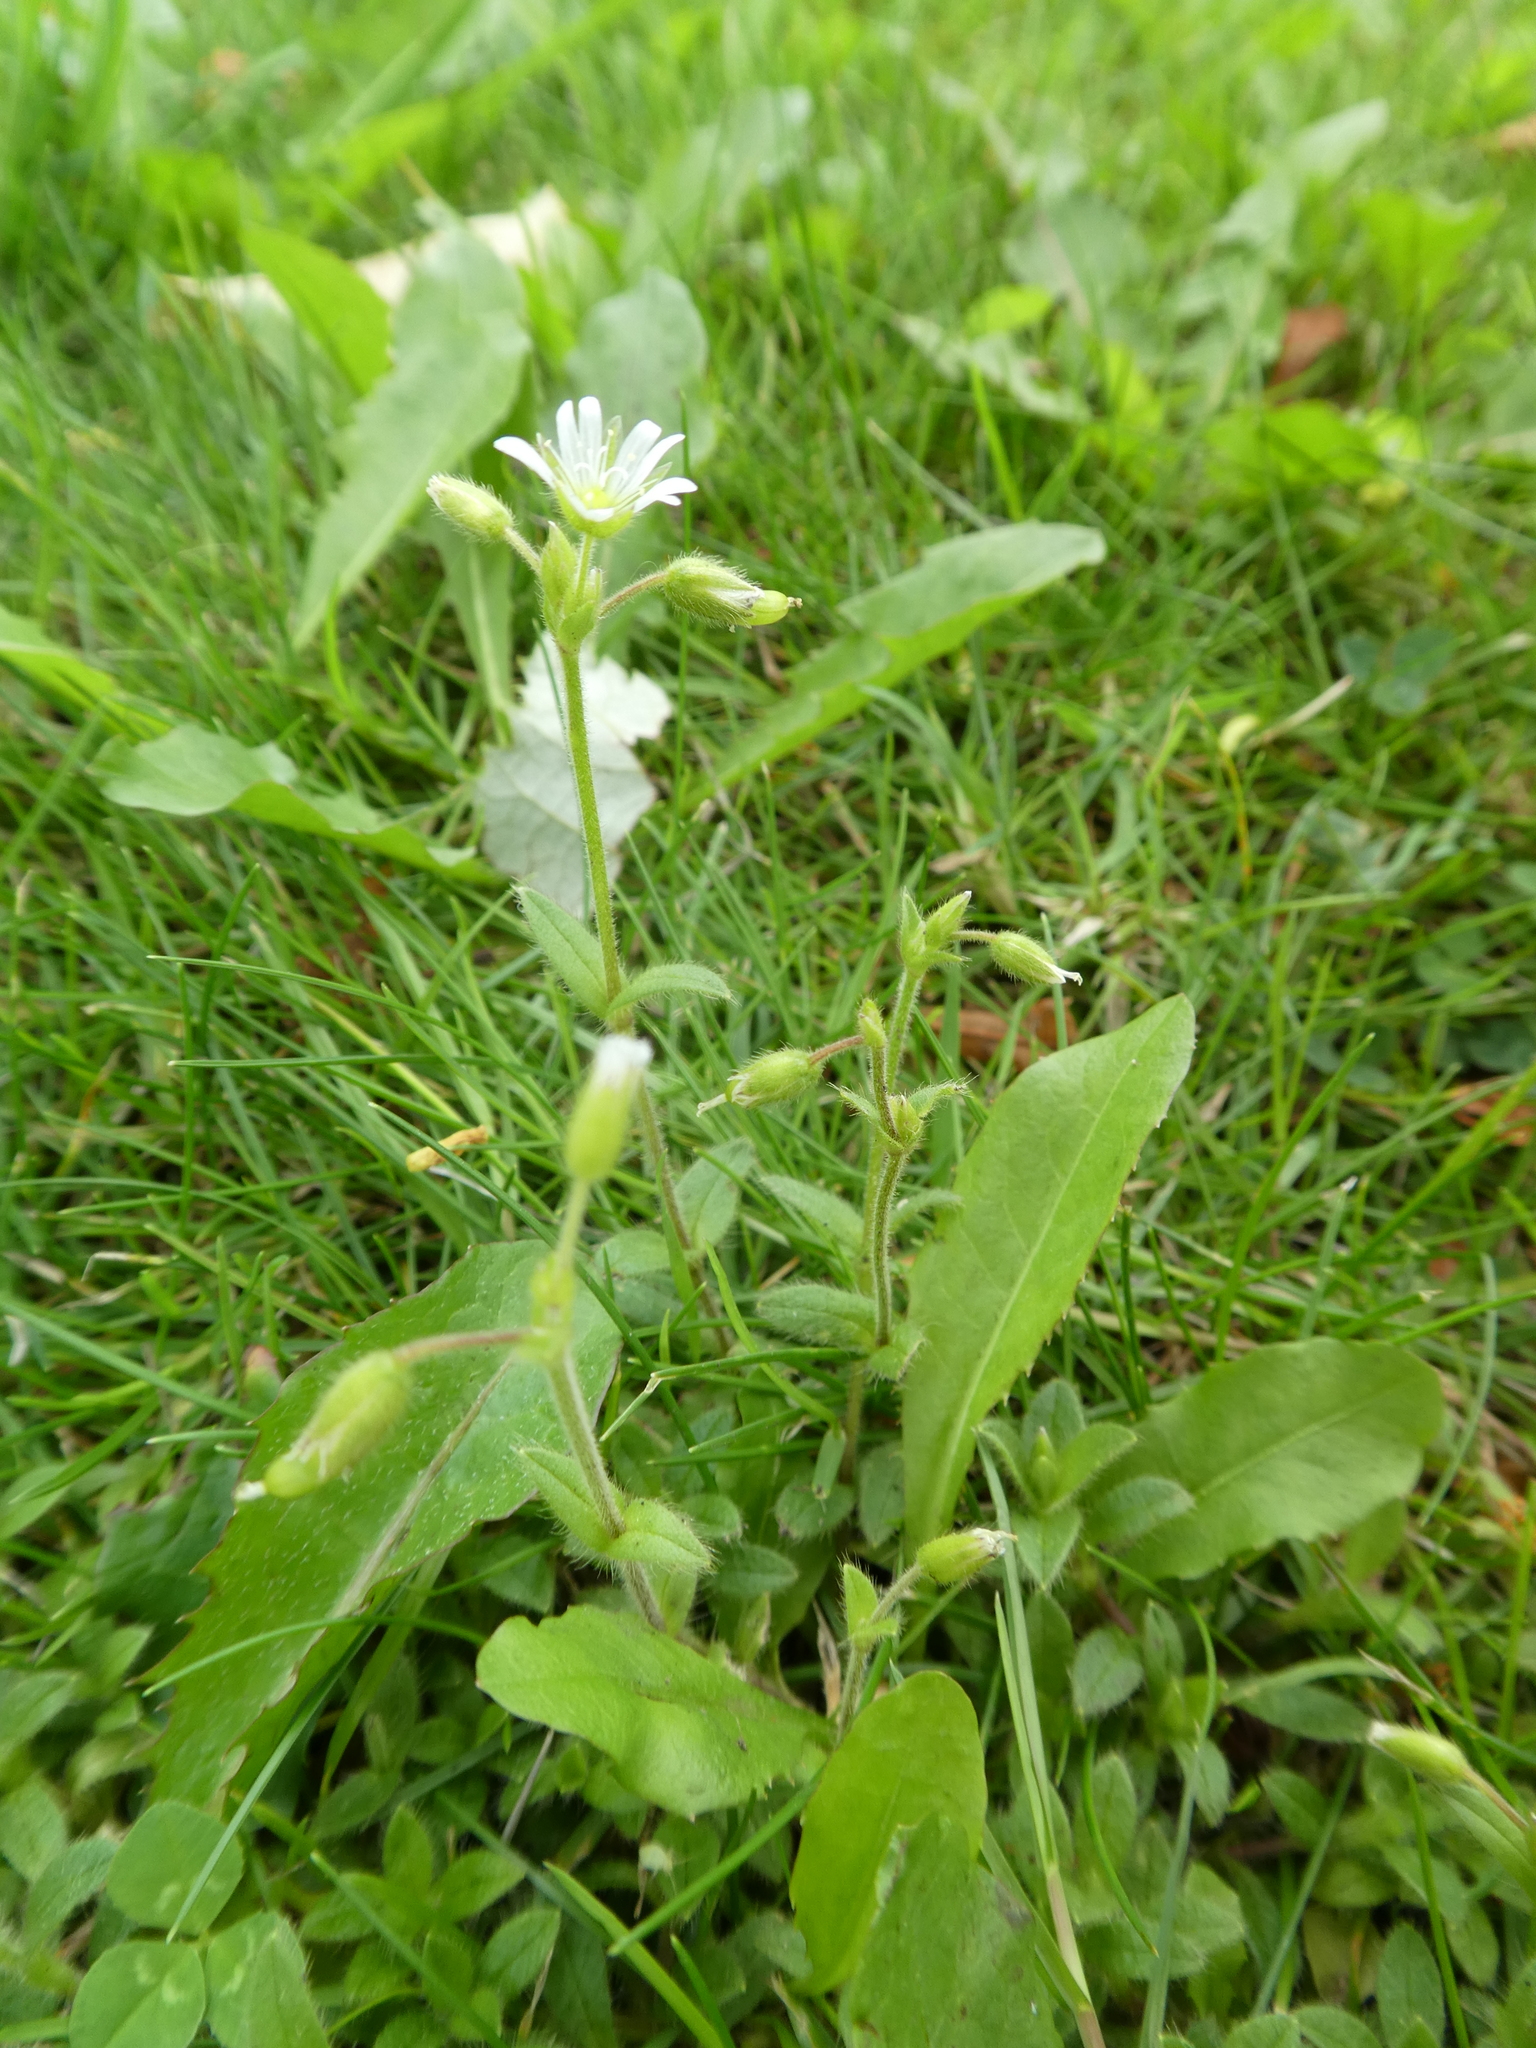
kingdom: Plantae
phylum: Tracheophyta
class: Magnoliopsida
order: Caryophyllales
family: Caryophyllaceae
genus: Cerastium
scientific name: Cerastium fontanum
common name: Common mouse-ear
